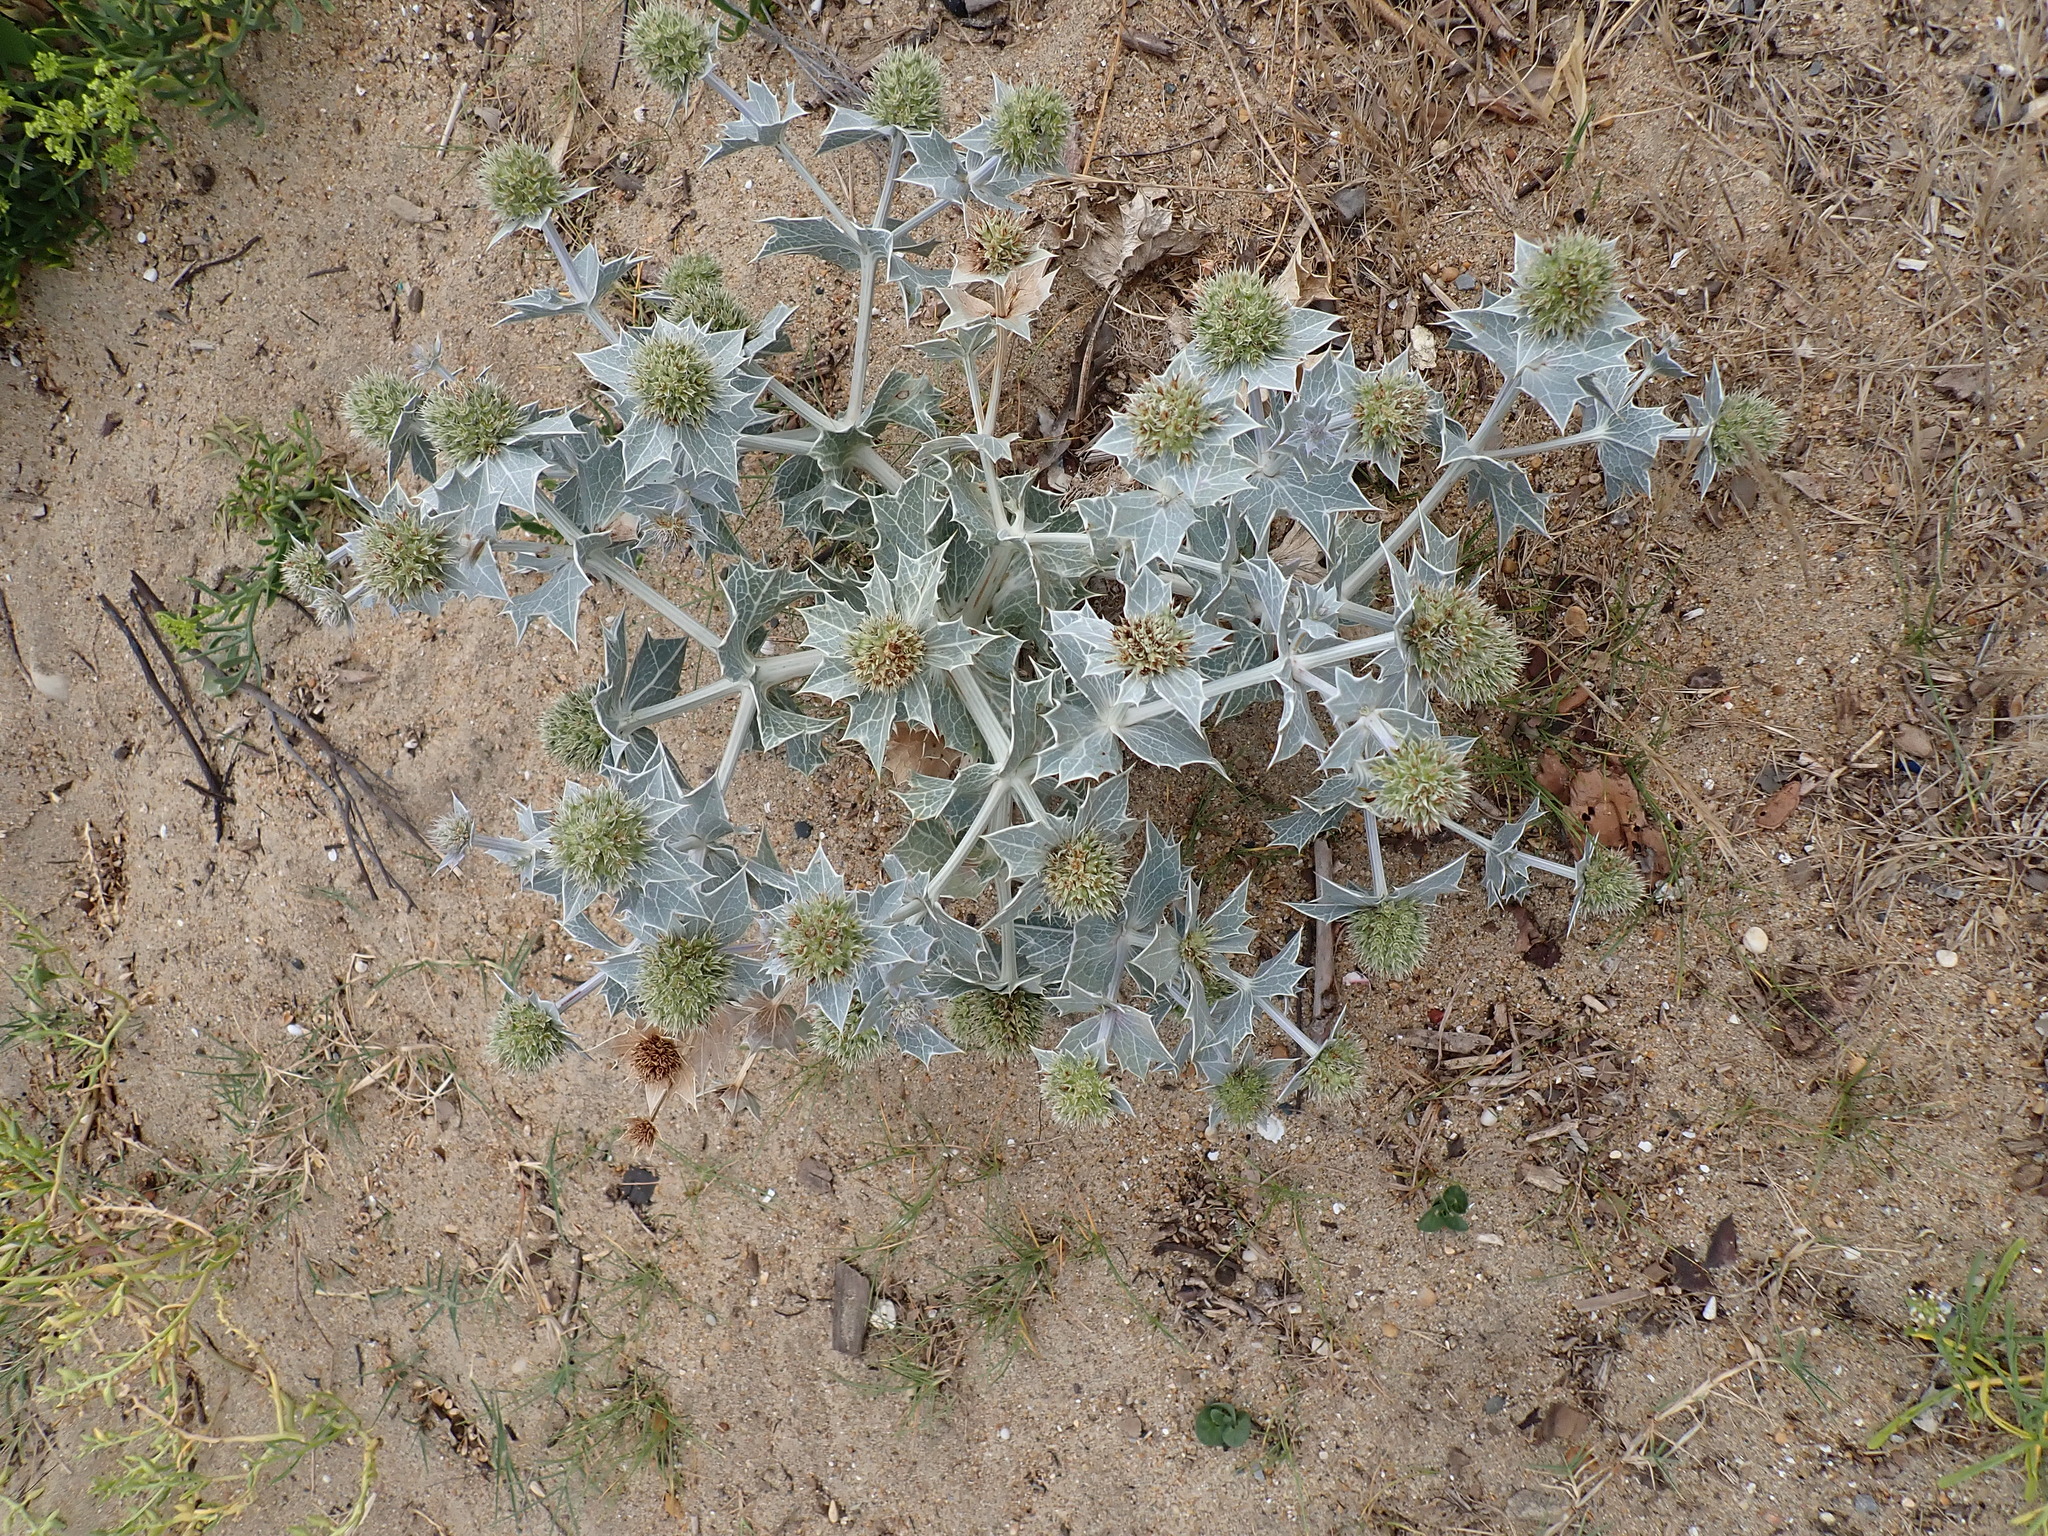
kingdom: Plantae
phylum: Tracheophyta
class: Magnoliopsida
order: Apiales
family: Apiaceae
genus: Eryngium
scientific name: Eryngium maritimum
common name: Sea-holly
